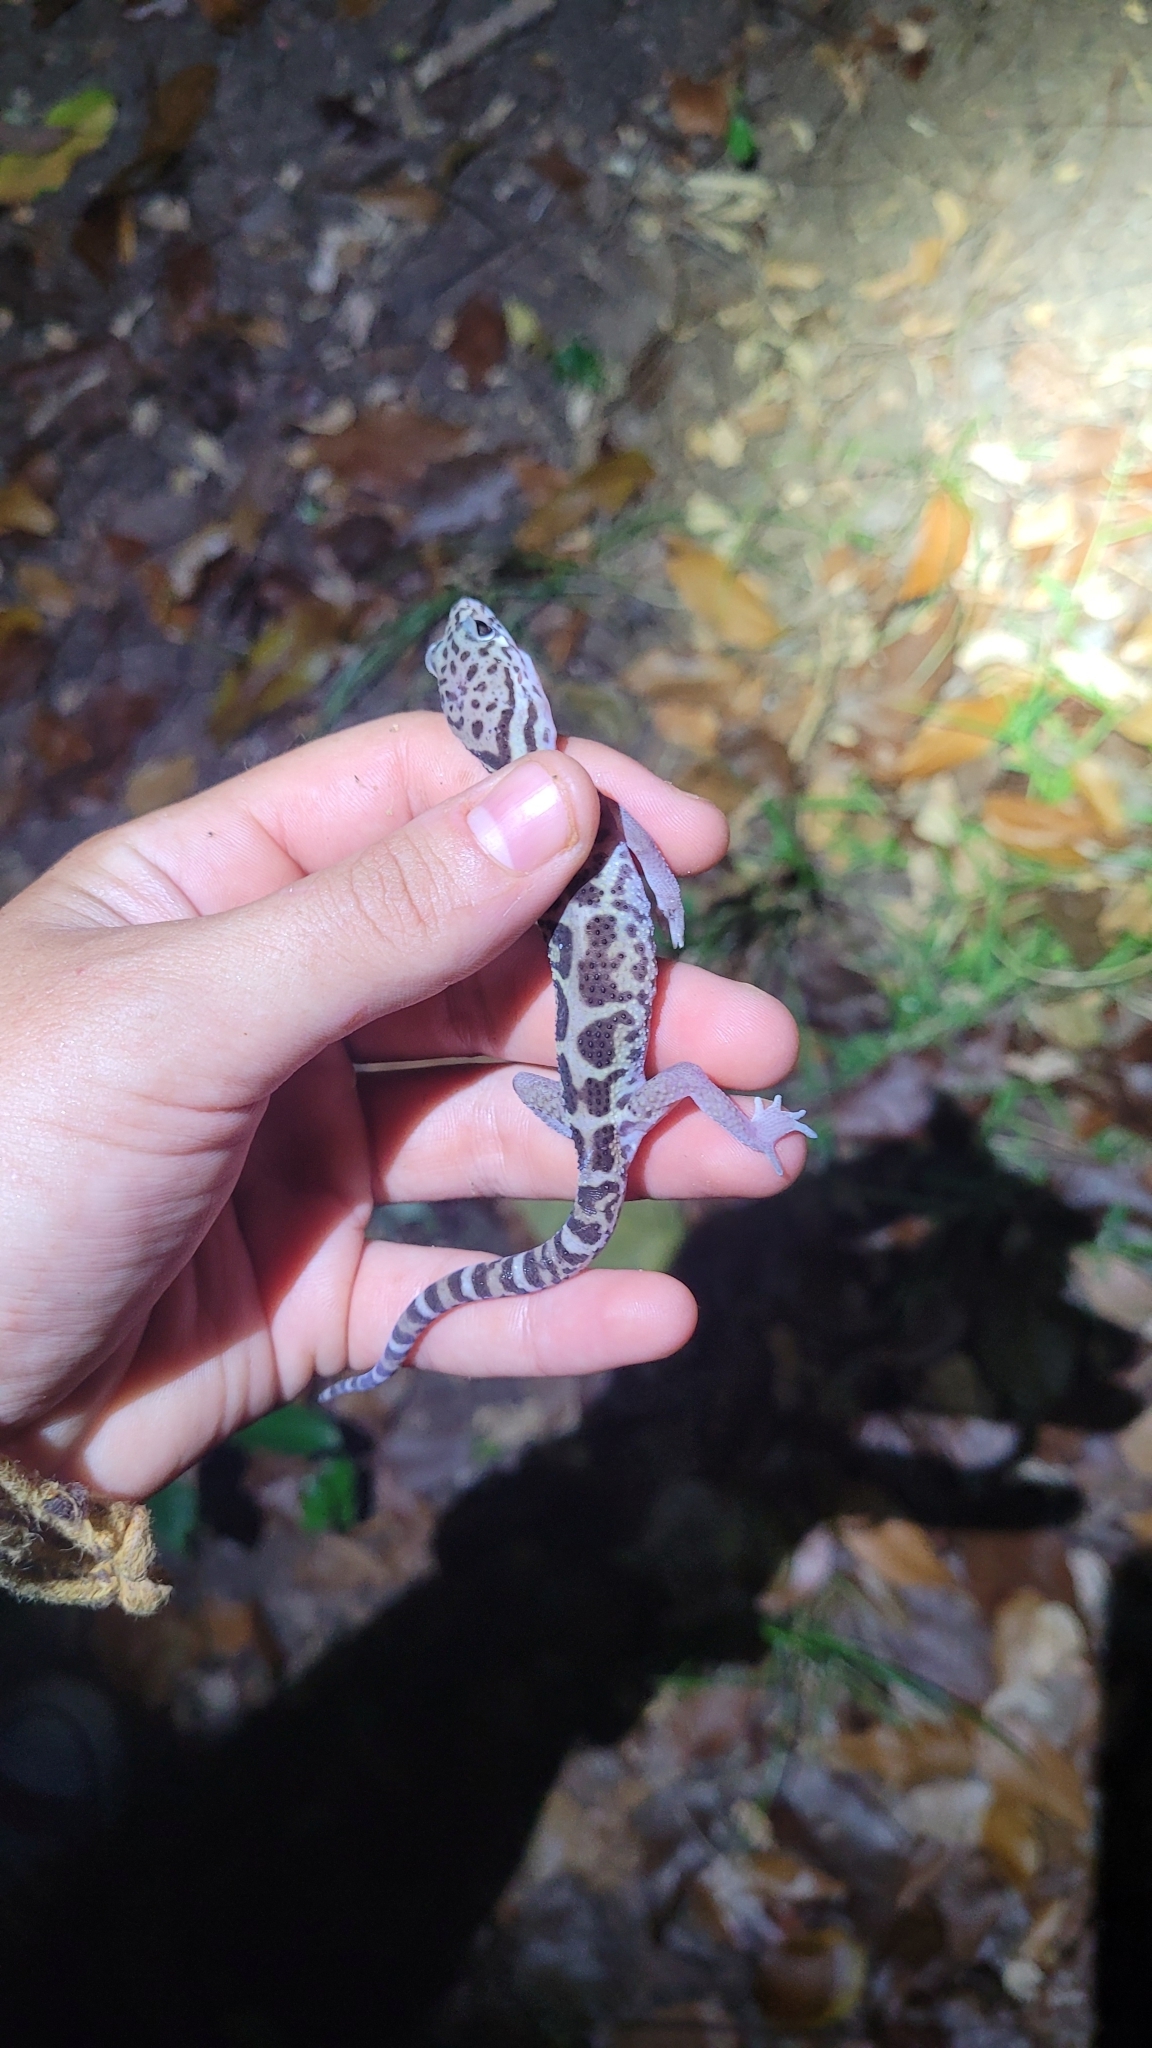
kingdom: Animalia
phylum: Chordata
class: Squamata
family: Eublepharidae
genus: Coleonyx
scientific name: Coleonyx mitratus
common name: Central american banded gecko
